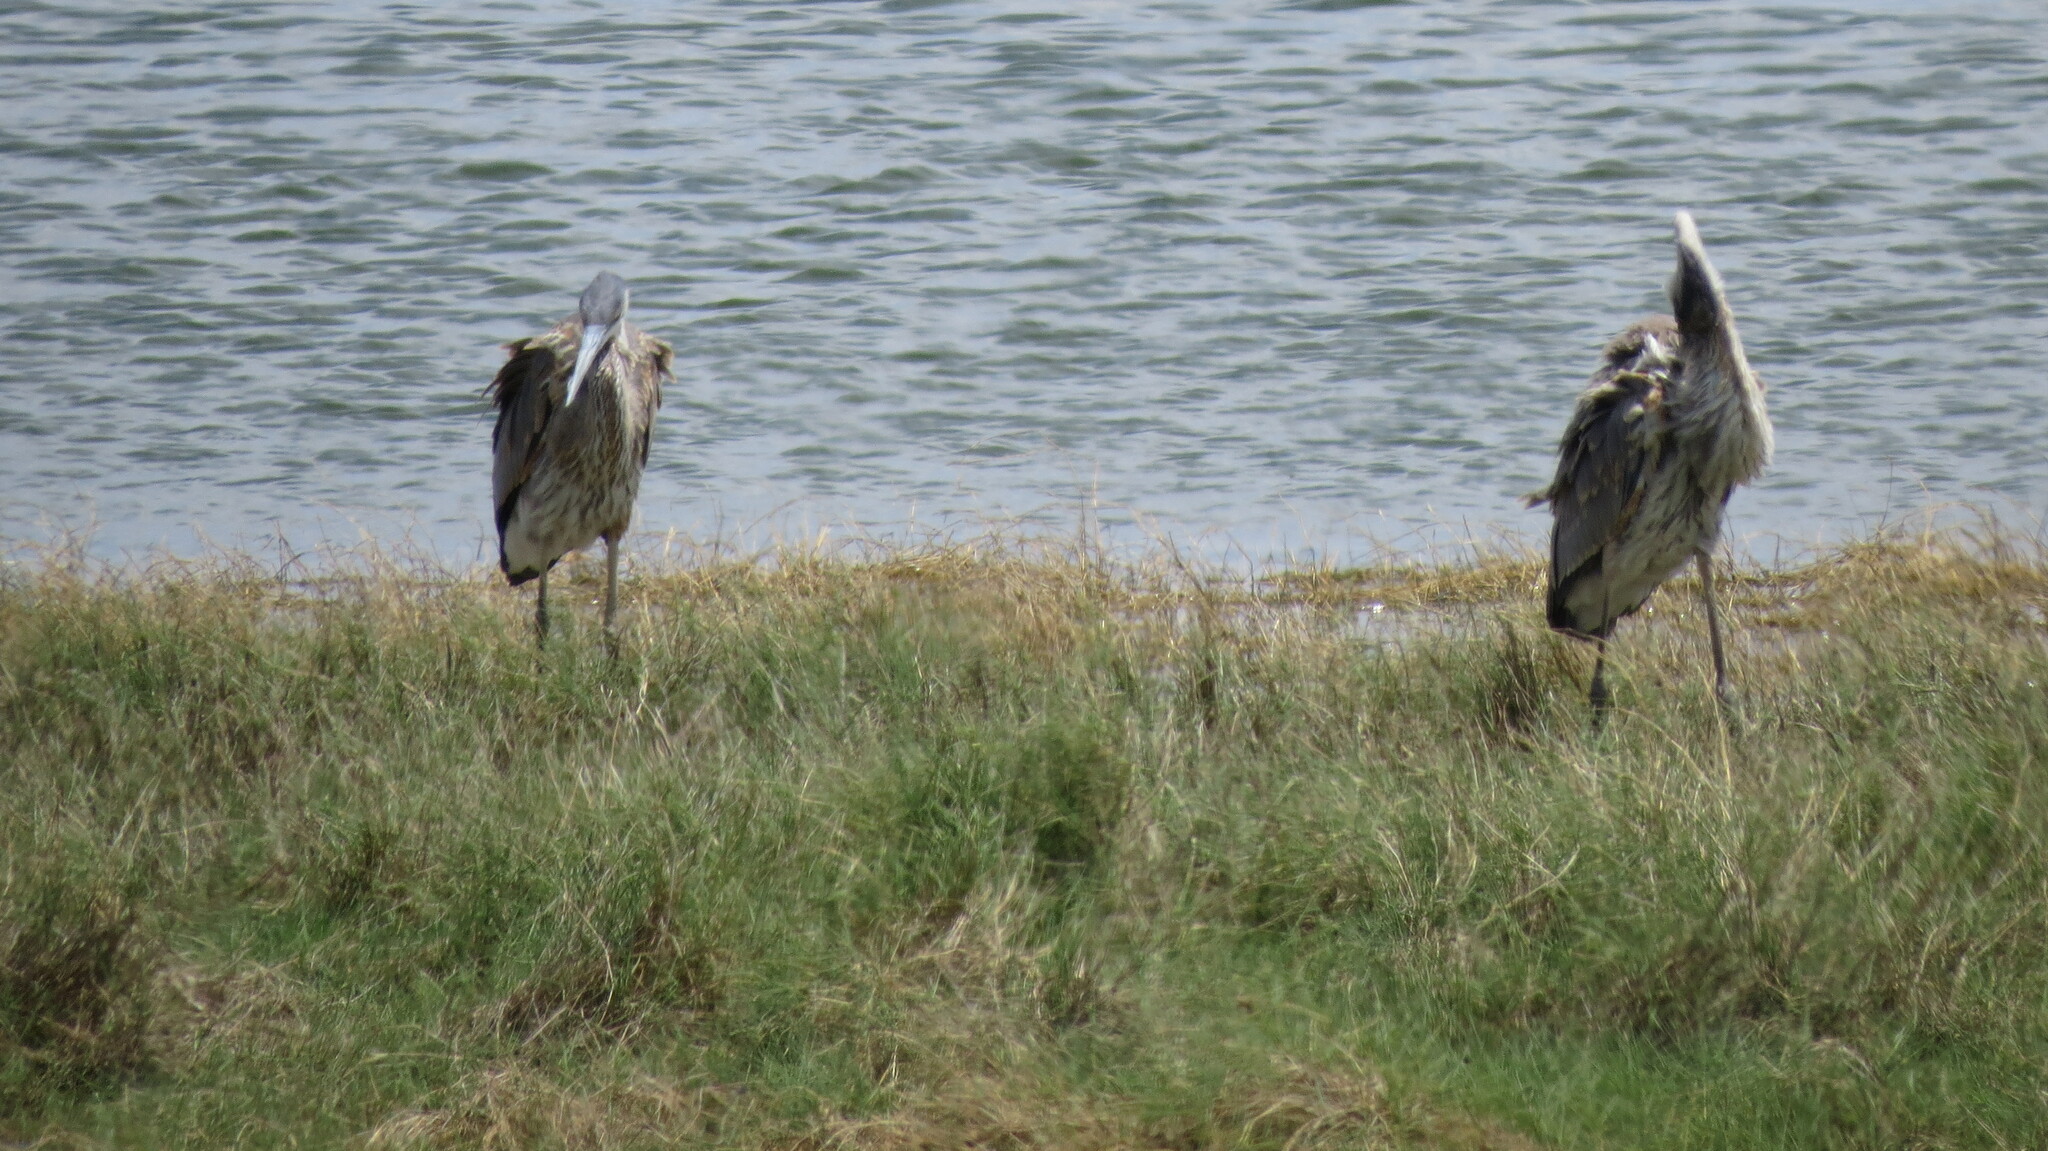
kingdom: Animalia
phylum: Chordata
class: Aves
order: Pelecaniformes
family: Ardeidae
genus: Ardea
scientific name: Ardea herodias
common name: Great blue heron
